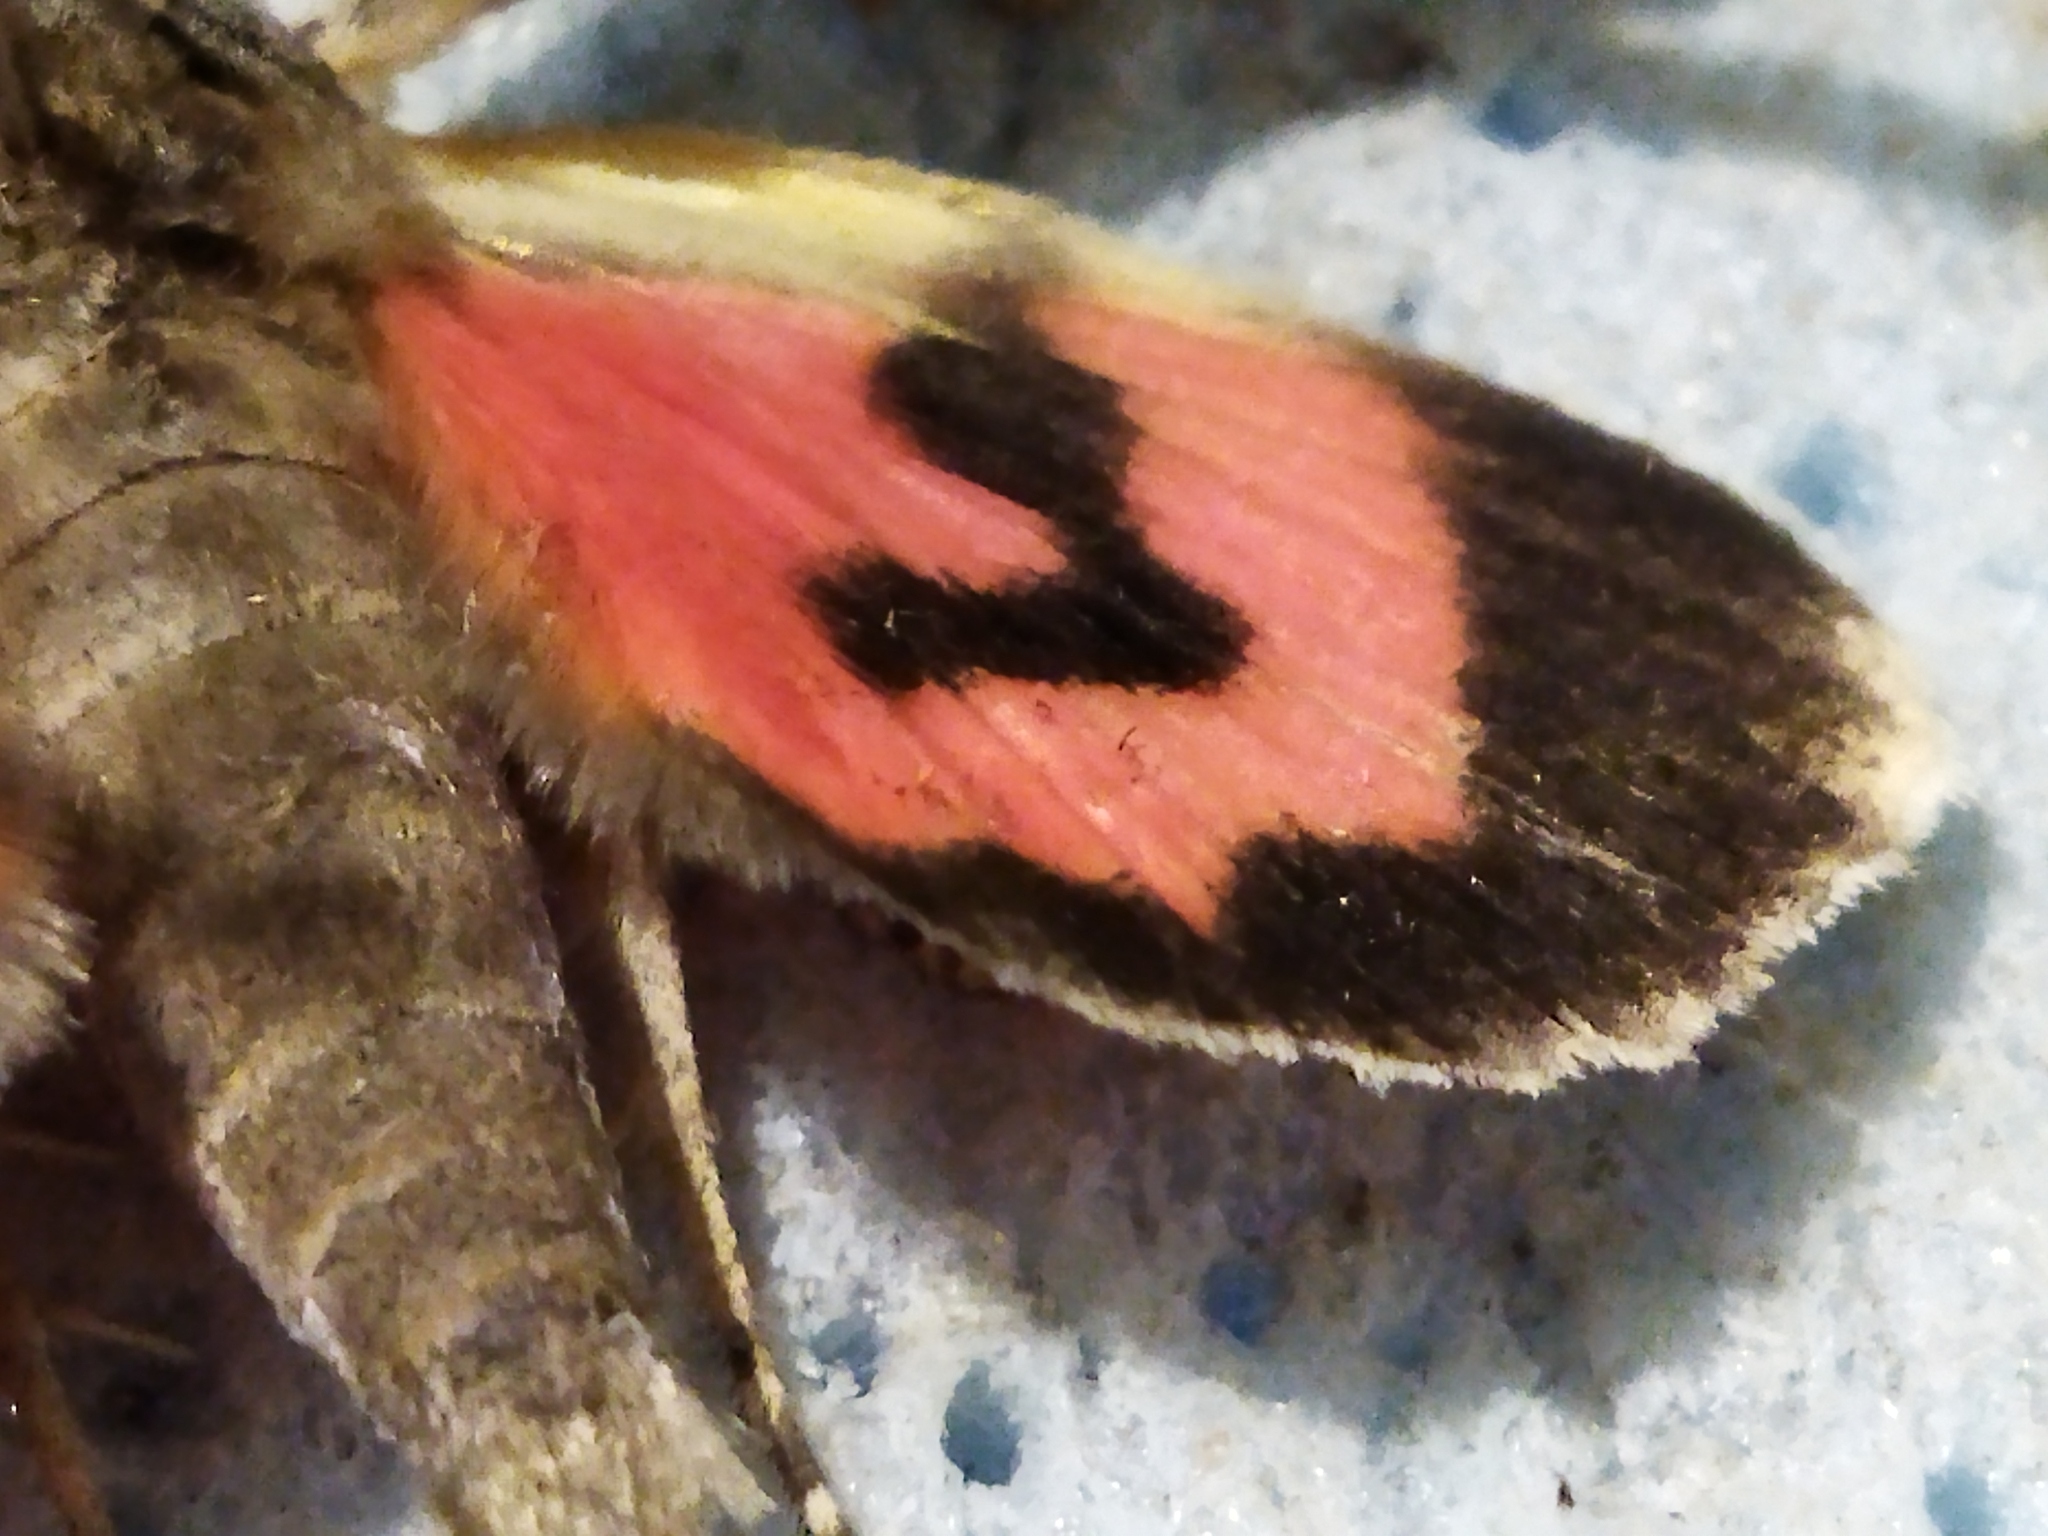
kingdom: Animalia
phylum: Arthropoda
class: Insecta
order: Lepidoptera
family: Erebidae
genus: Catocala
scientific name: Catocala electa
